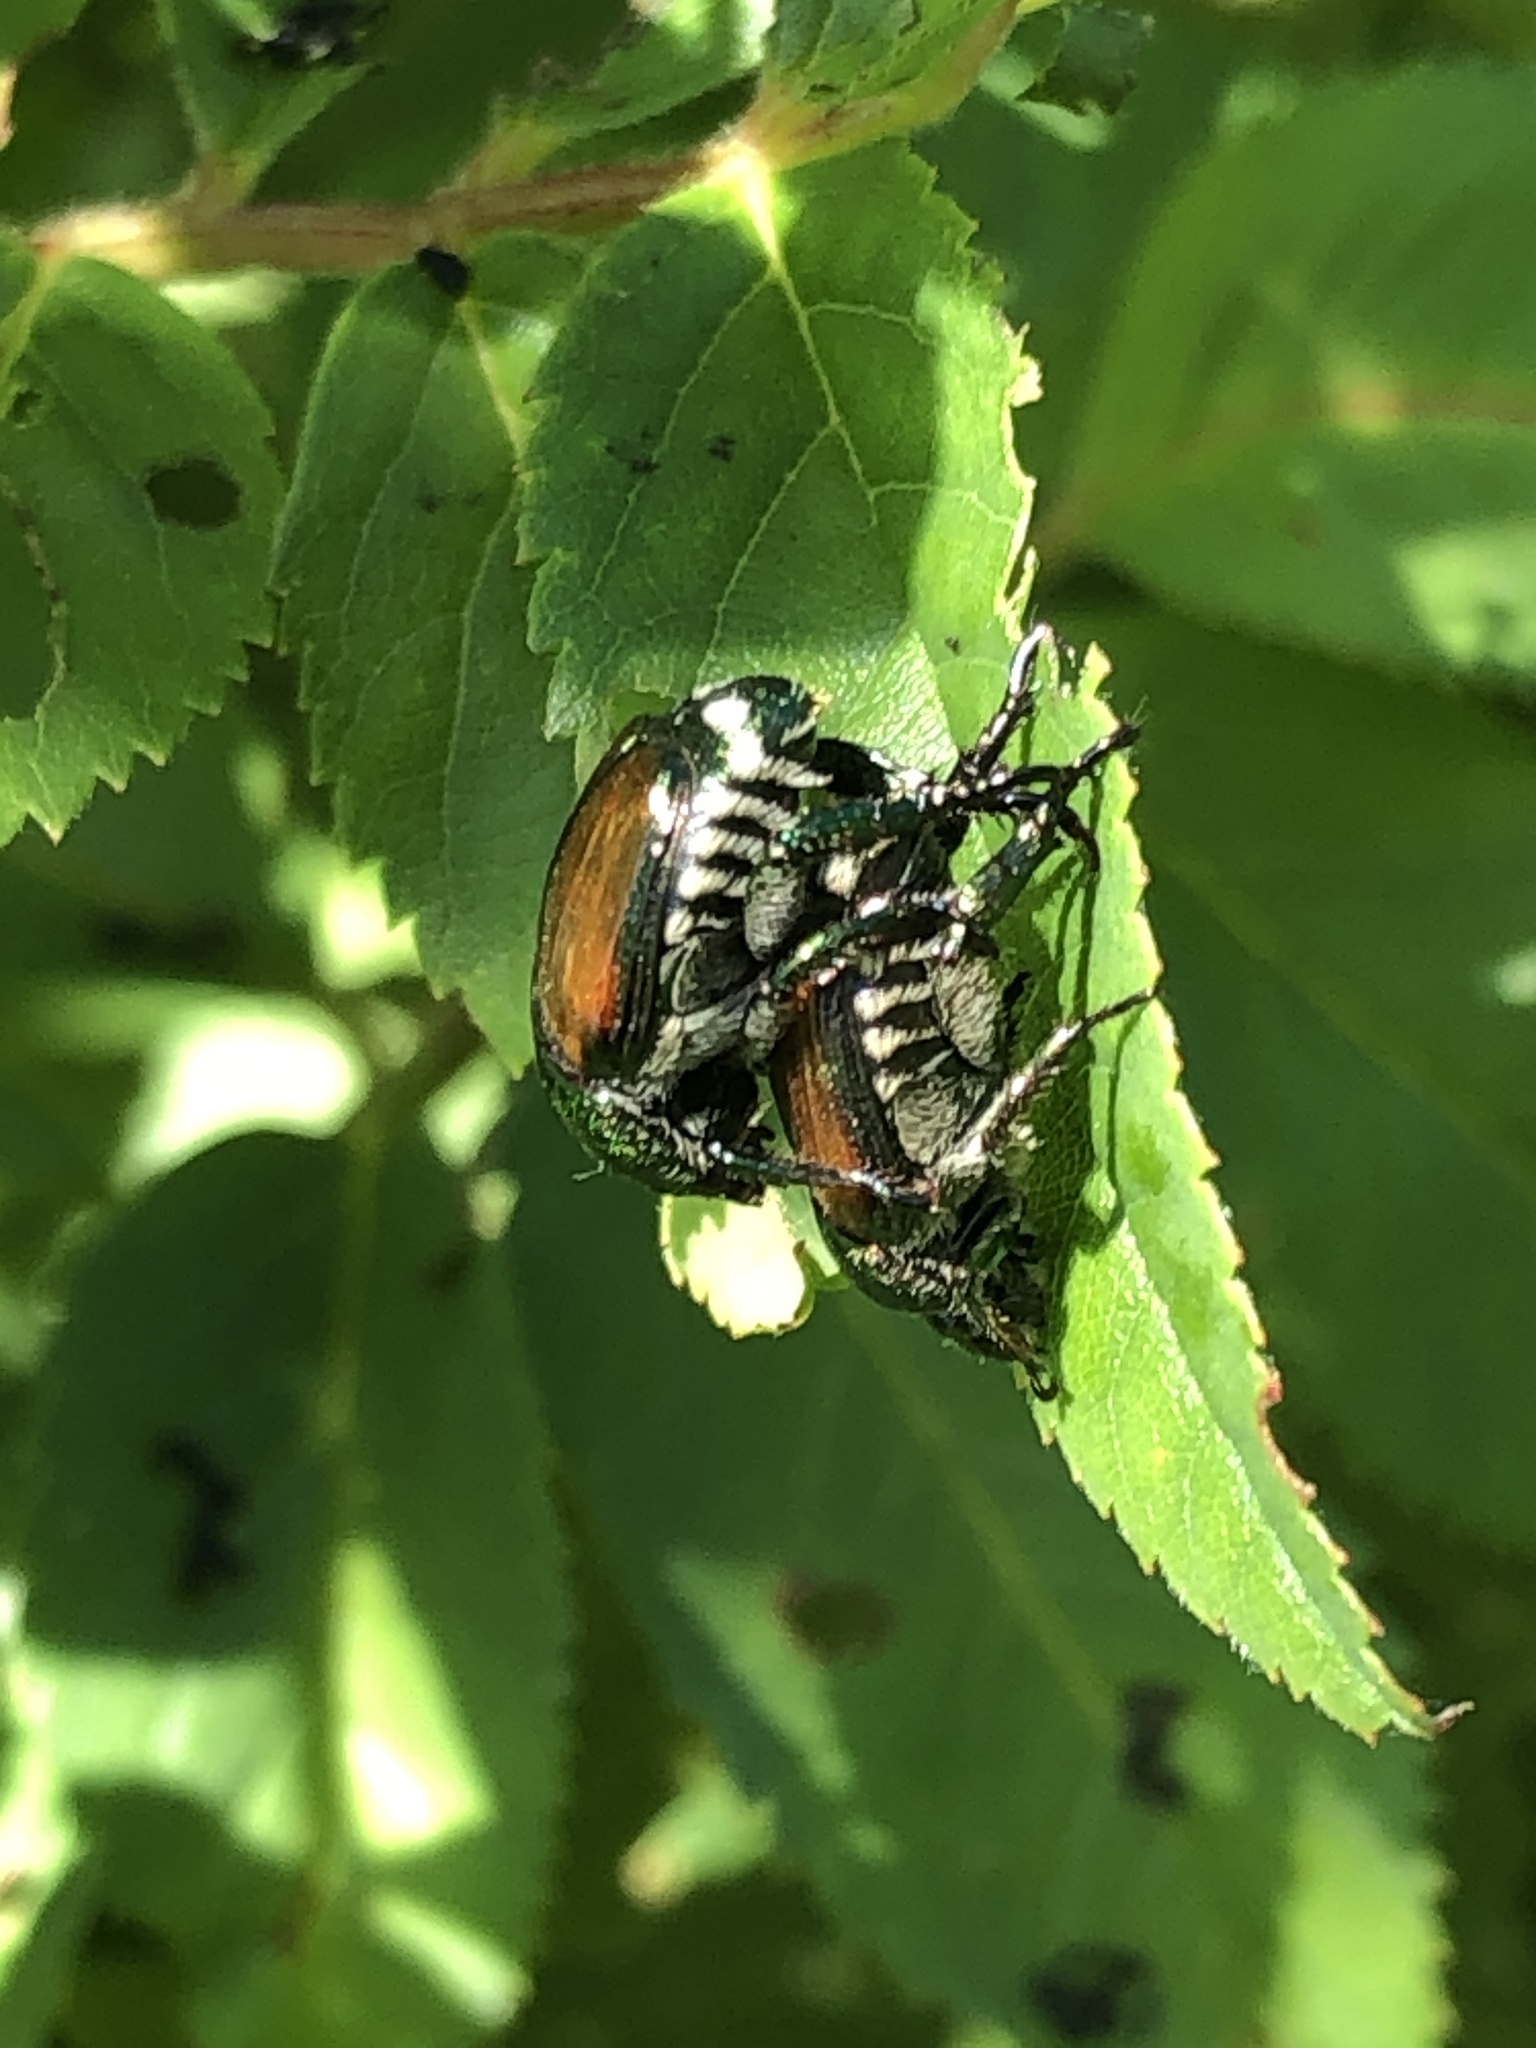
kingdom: Animalia
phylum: Arthropoda
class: Insecta
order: Coleoptera
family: Scarabaeidae
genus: Popillia
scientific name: Popillia japonica
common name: Japanese beetle
